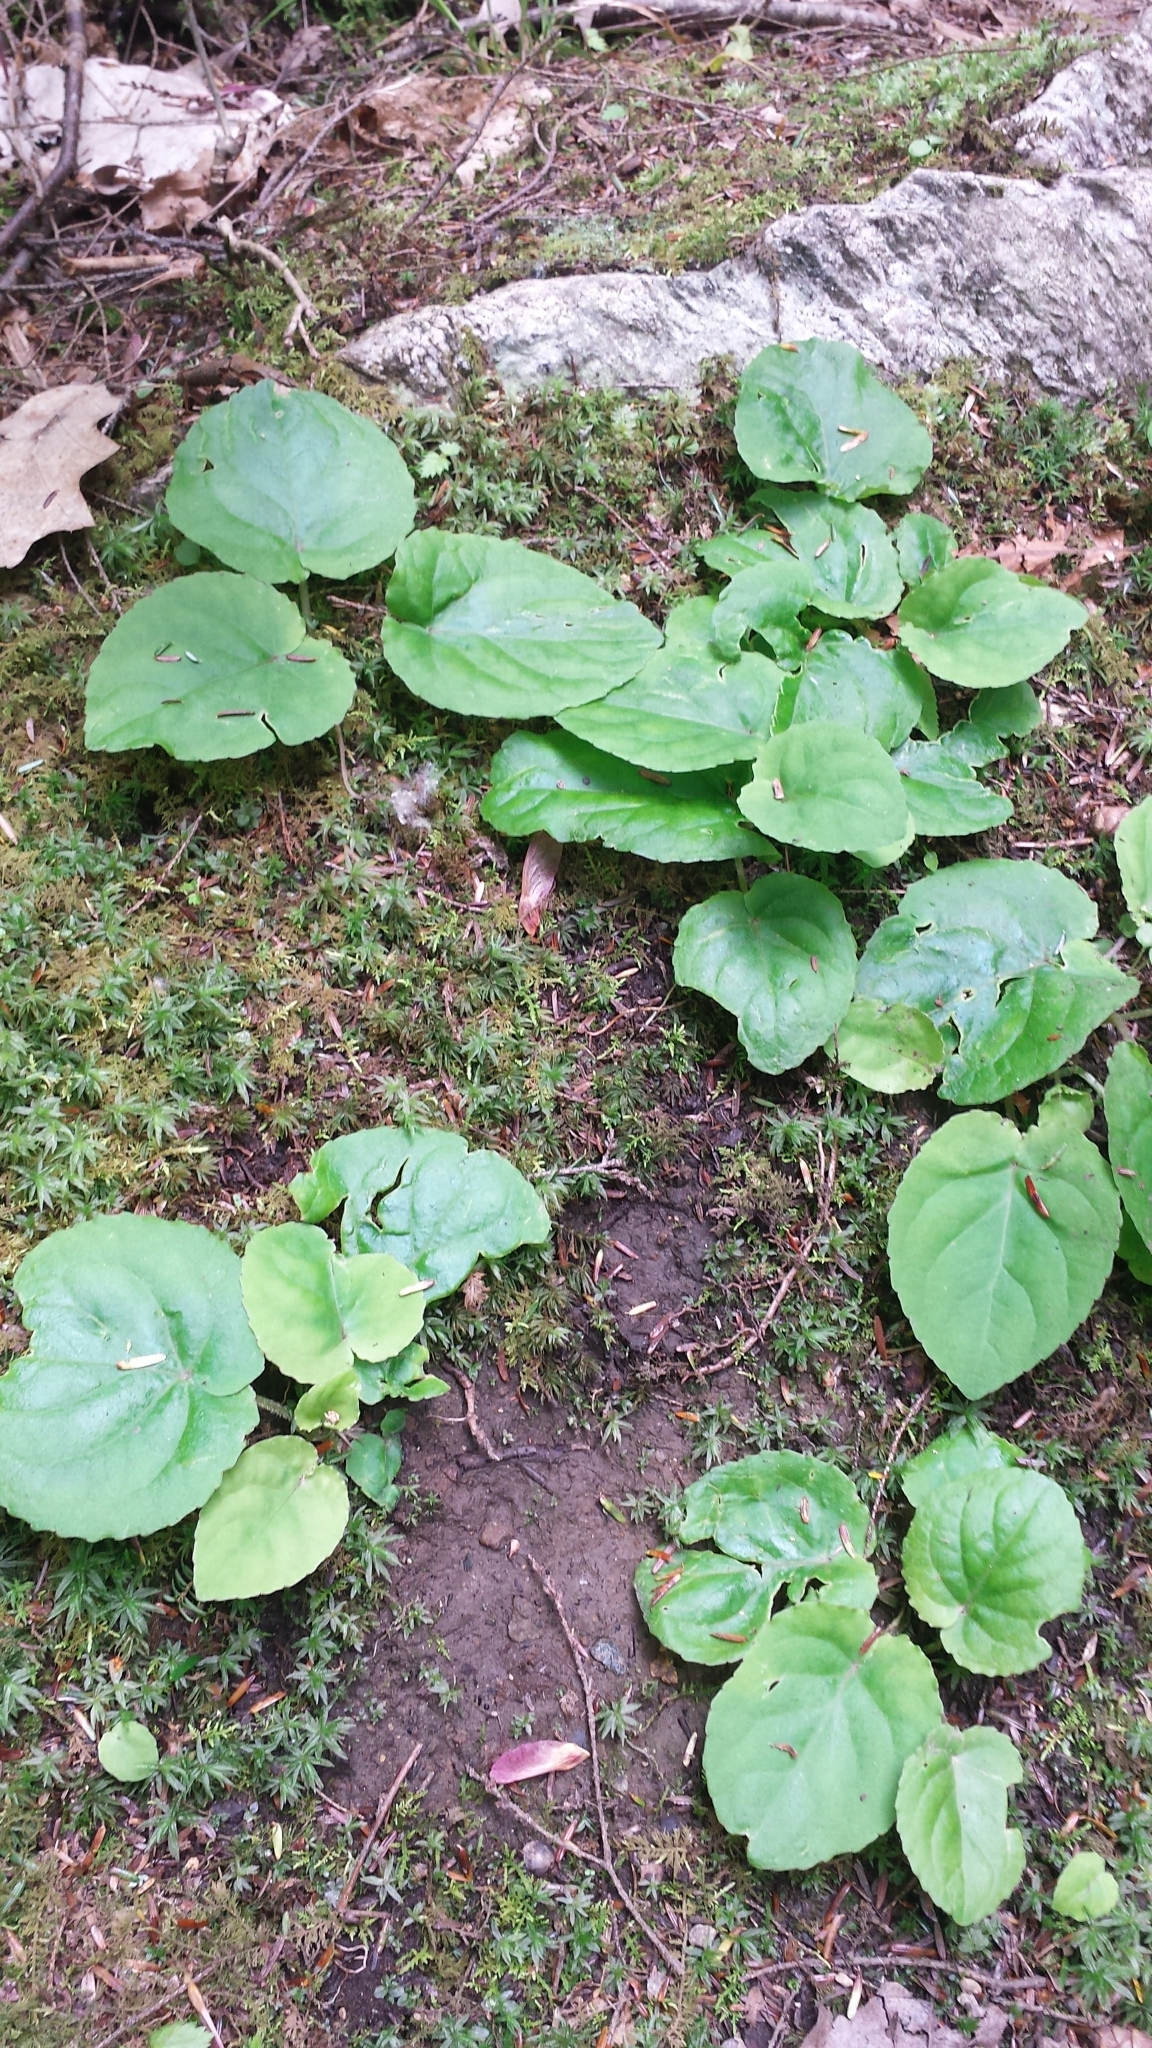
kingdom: Plantae
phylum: Tracheophyta
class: Magnoliopsida
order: Malpighiales
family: Violaceae
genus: Viola
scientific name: Viola rotundifolia
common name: Early yellow violet
